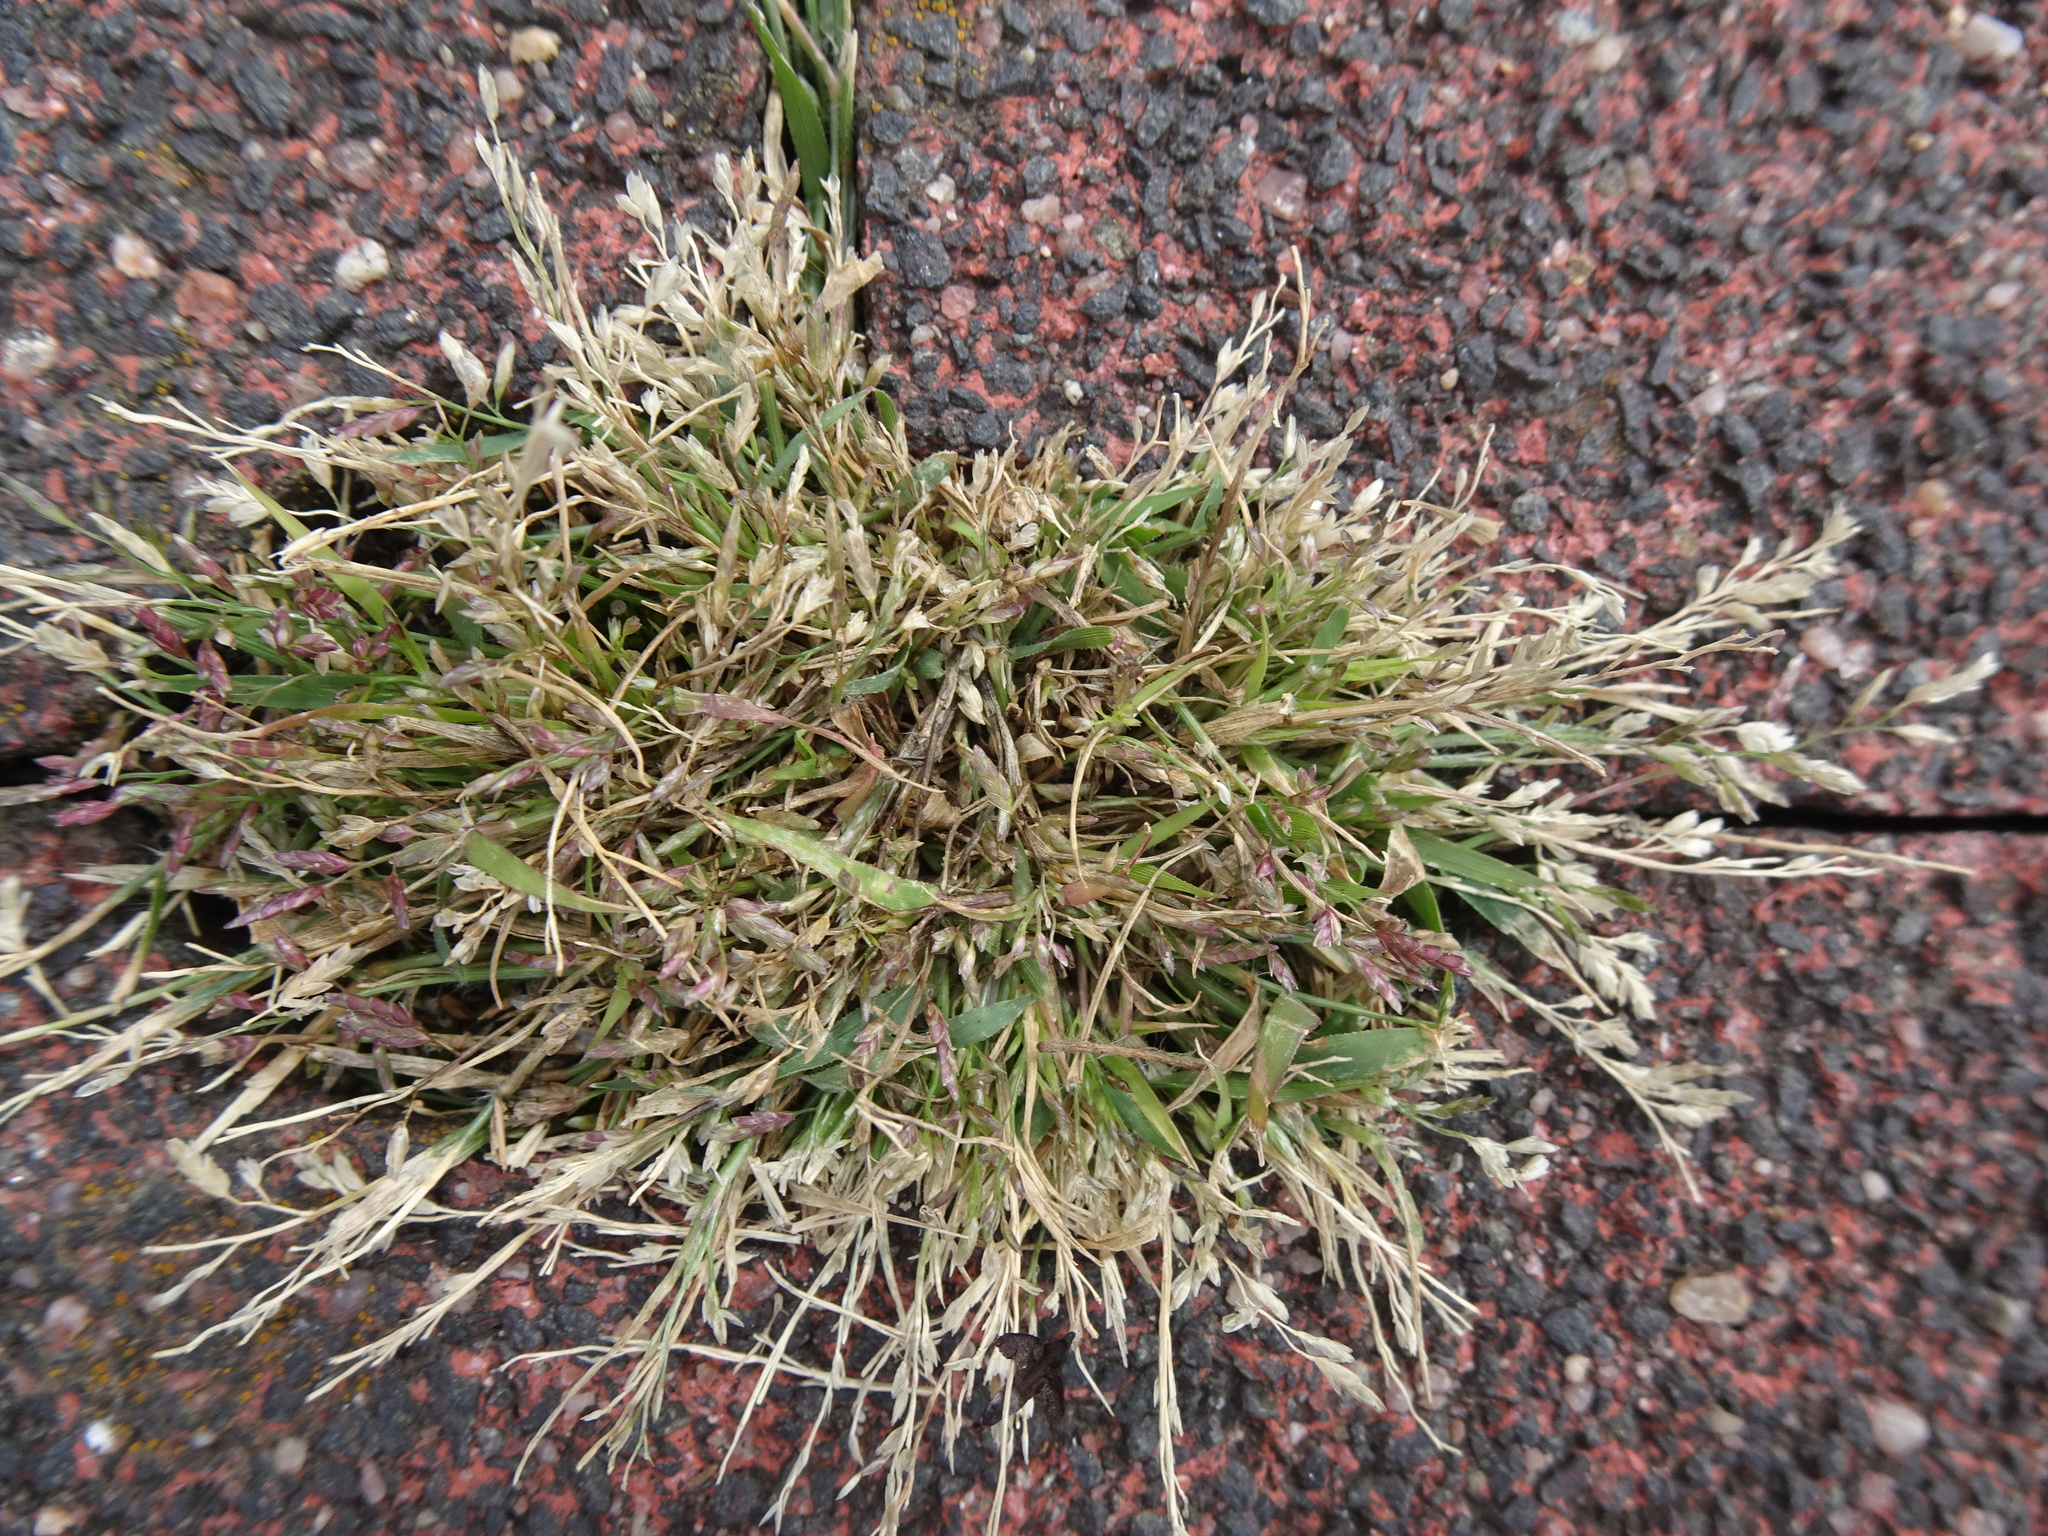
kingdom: Plantae
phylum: Tracheophyta
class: Liliopsida
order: Poales
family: Poaceae
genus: Eragrostis
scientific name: Eragrostis minor
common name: Small love-grass
